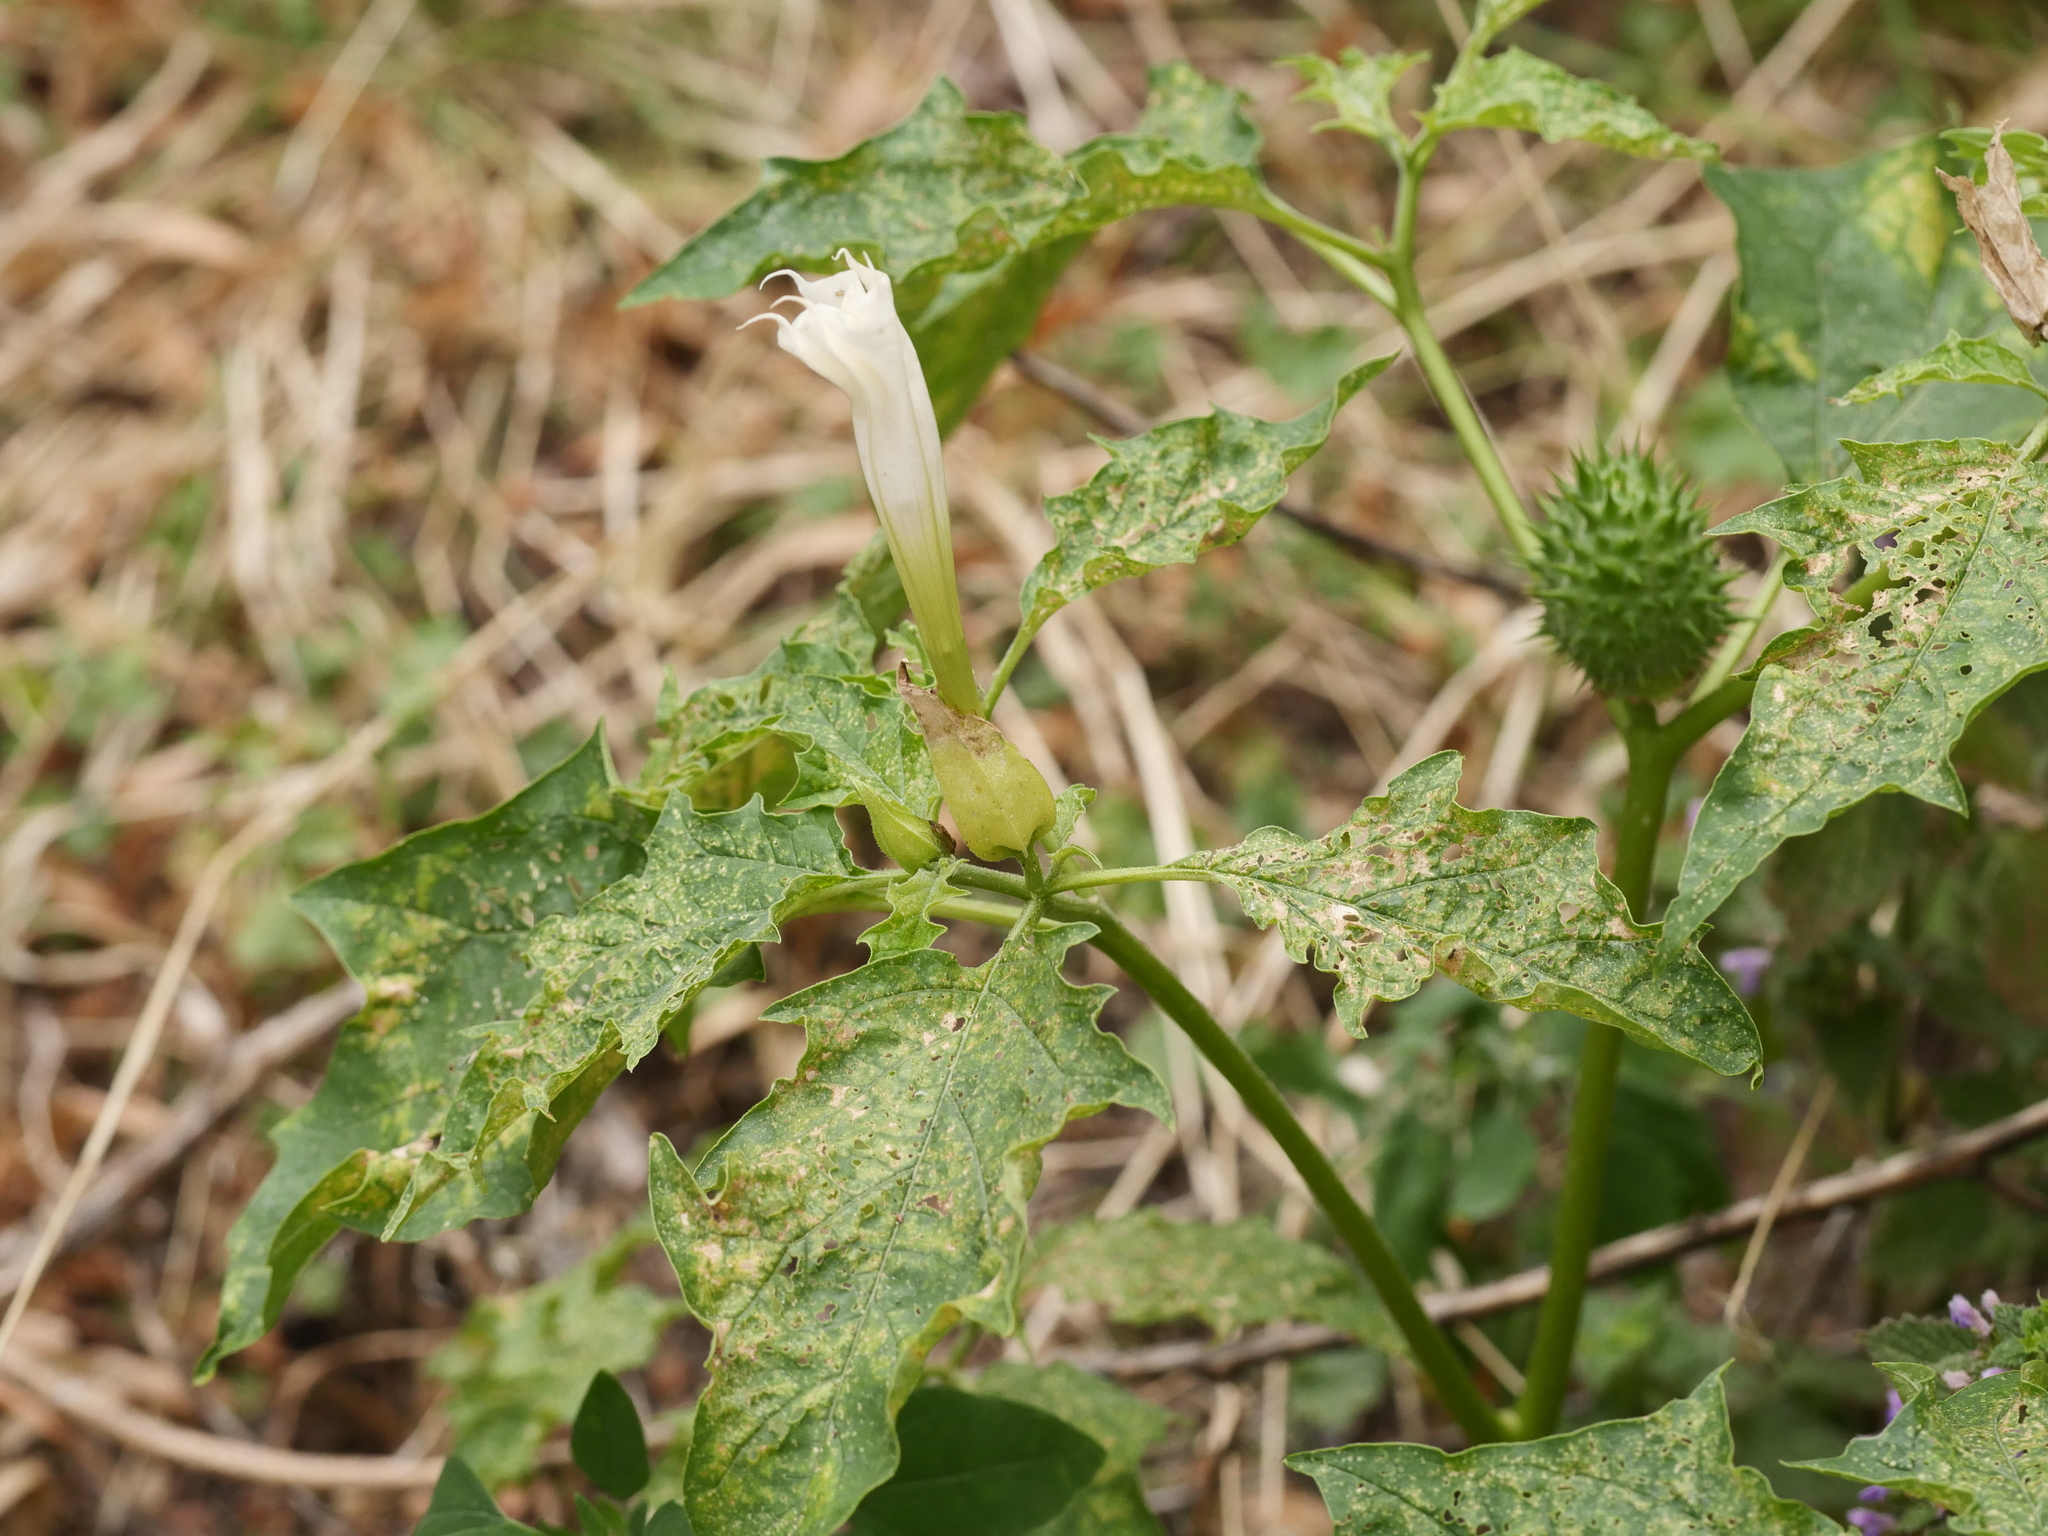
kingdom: Plantae
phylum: Tracheophyta
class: Magnoliopsida
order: Solanales
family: Solanaceae
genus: Datura
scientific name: Datura stramonium
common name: Thorn-apple
